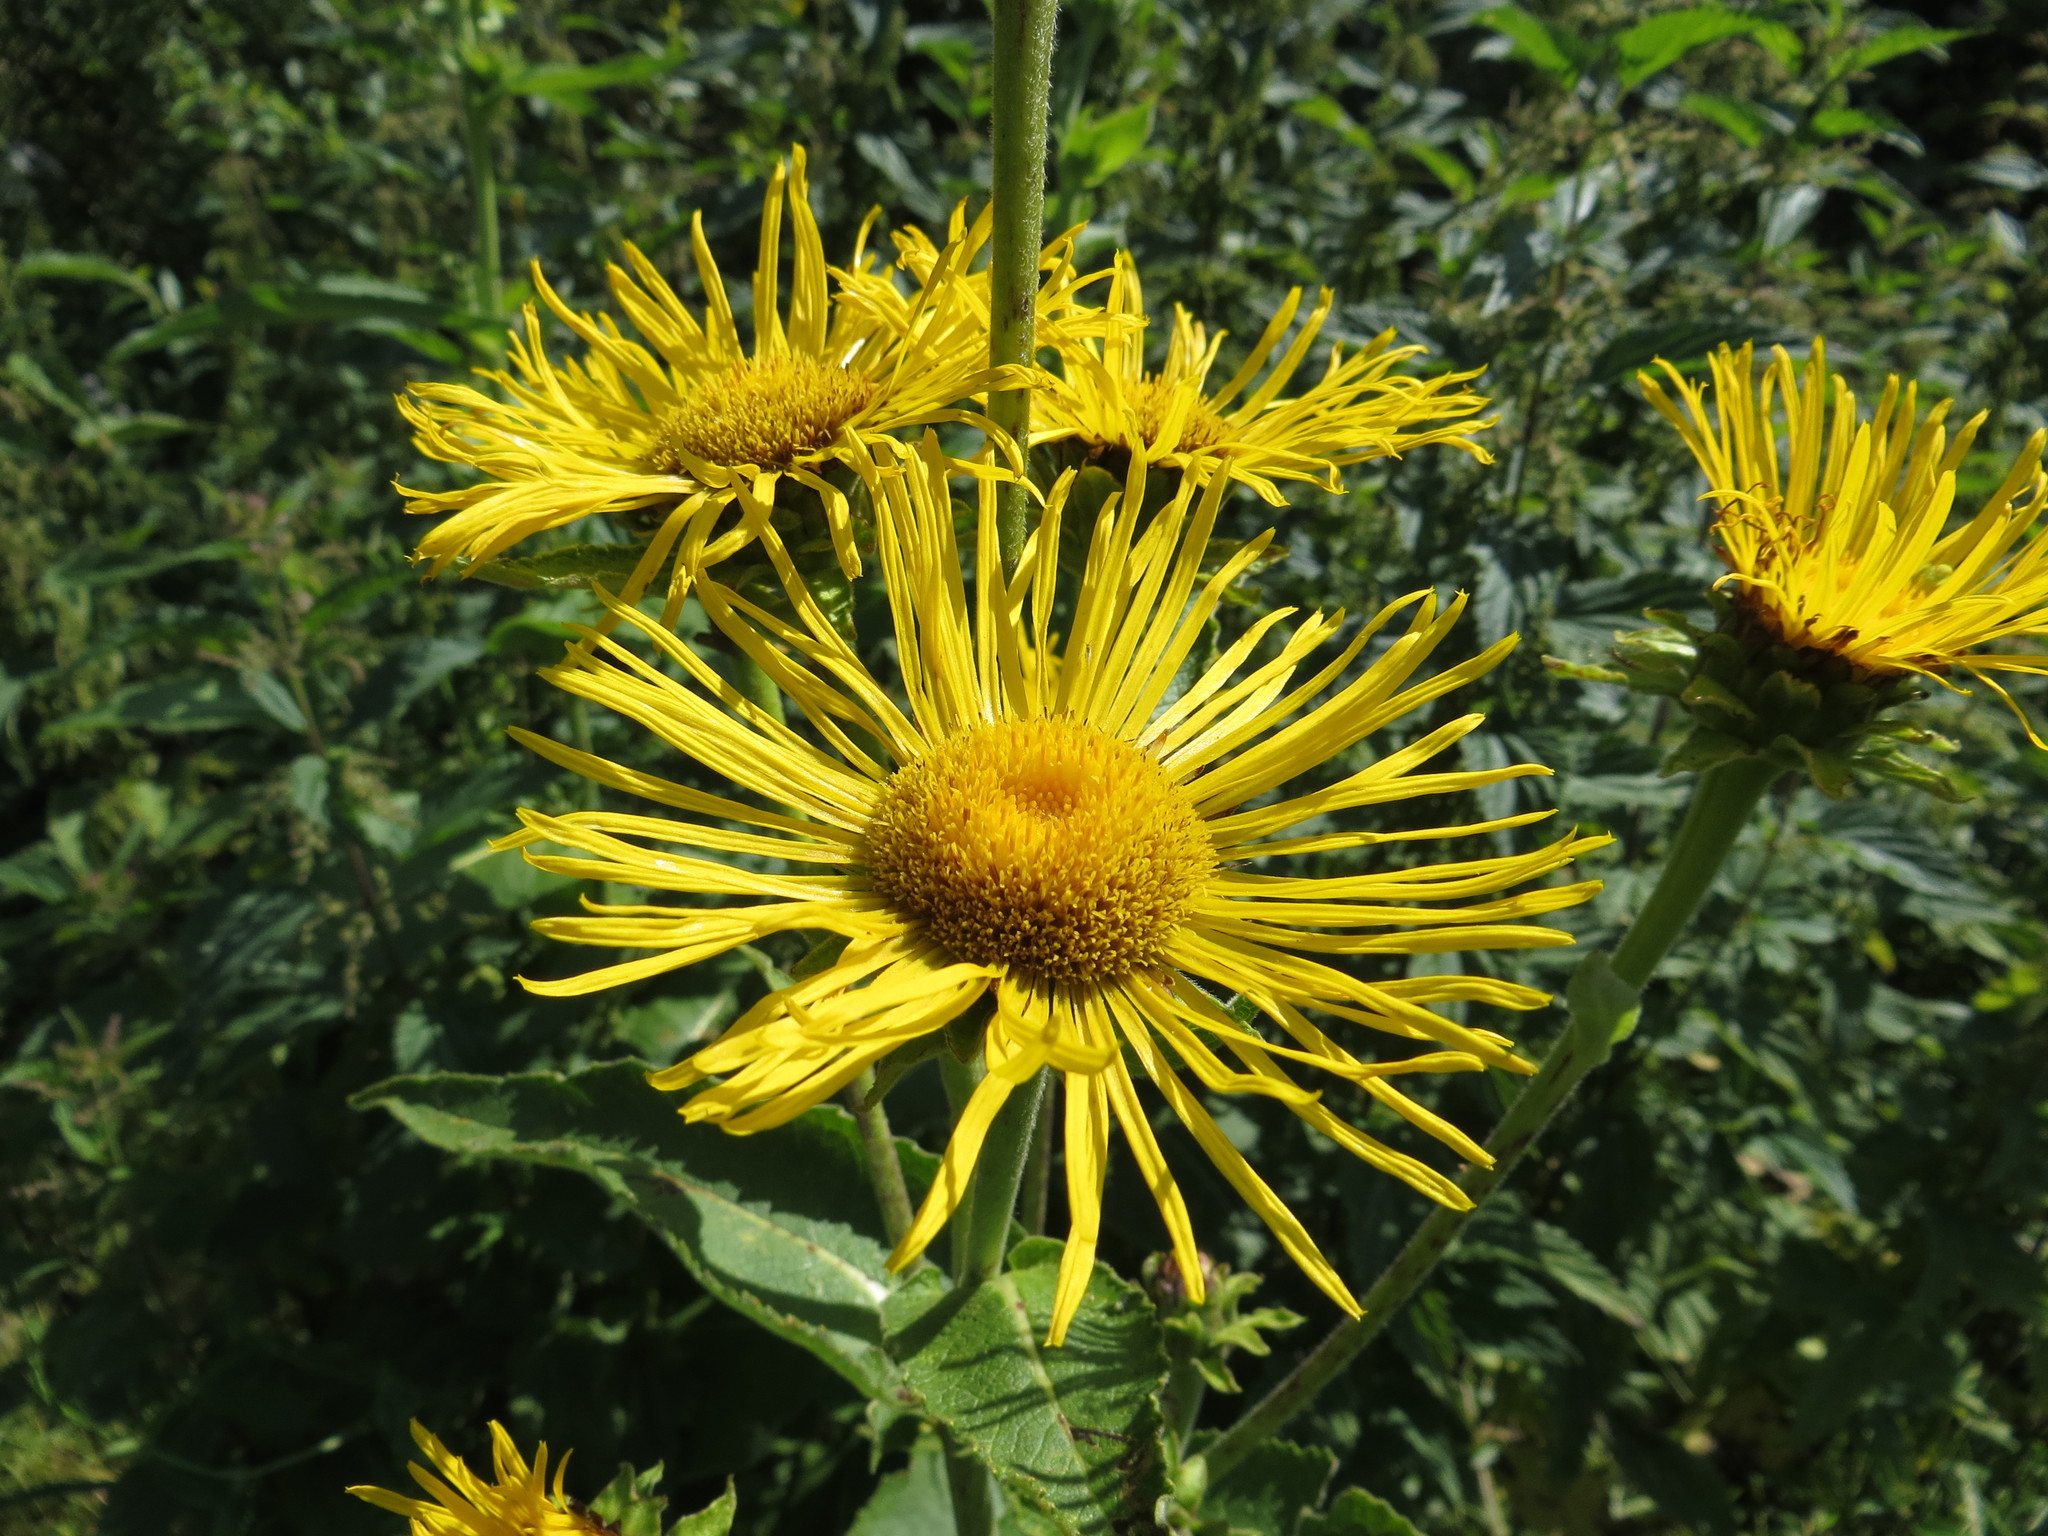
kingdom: Plantae
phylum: Tracheophyta
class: Magnoliopsida
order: Asterales
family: Asteraceae
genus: Inula
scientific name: Inula helenium
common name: Elecampane
